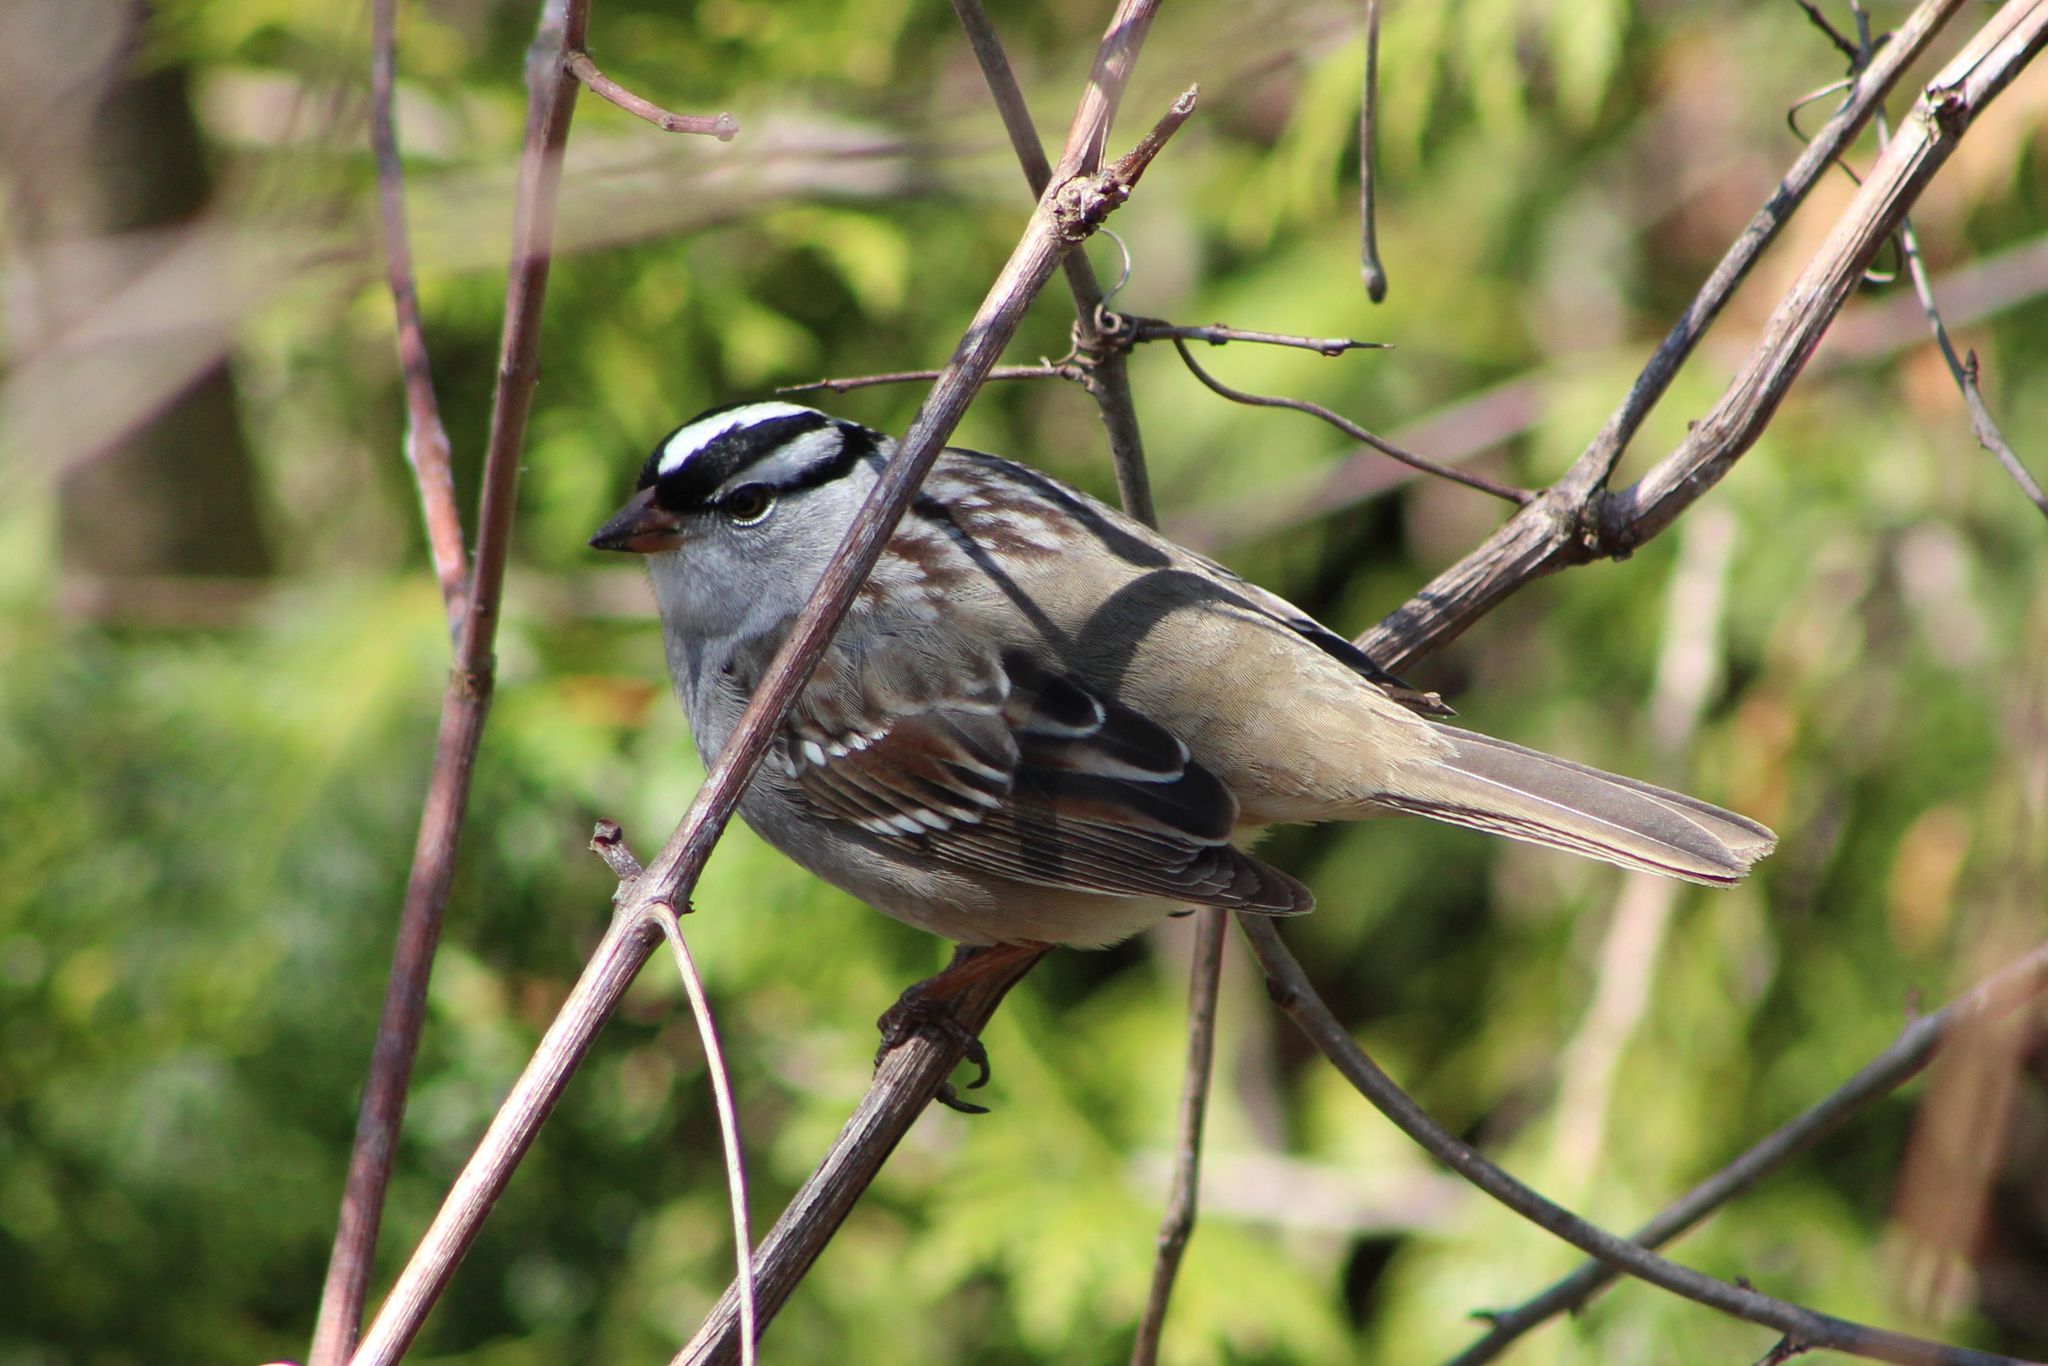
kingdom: Animalia
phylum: Chordata
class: Aves
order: Passeriformes
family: Passerellidae
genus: Zonotrichia
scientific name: Zonotrichia leucophrys
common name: White-crowned sparrow
